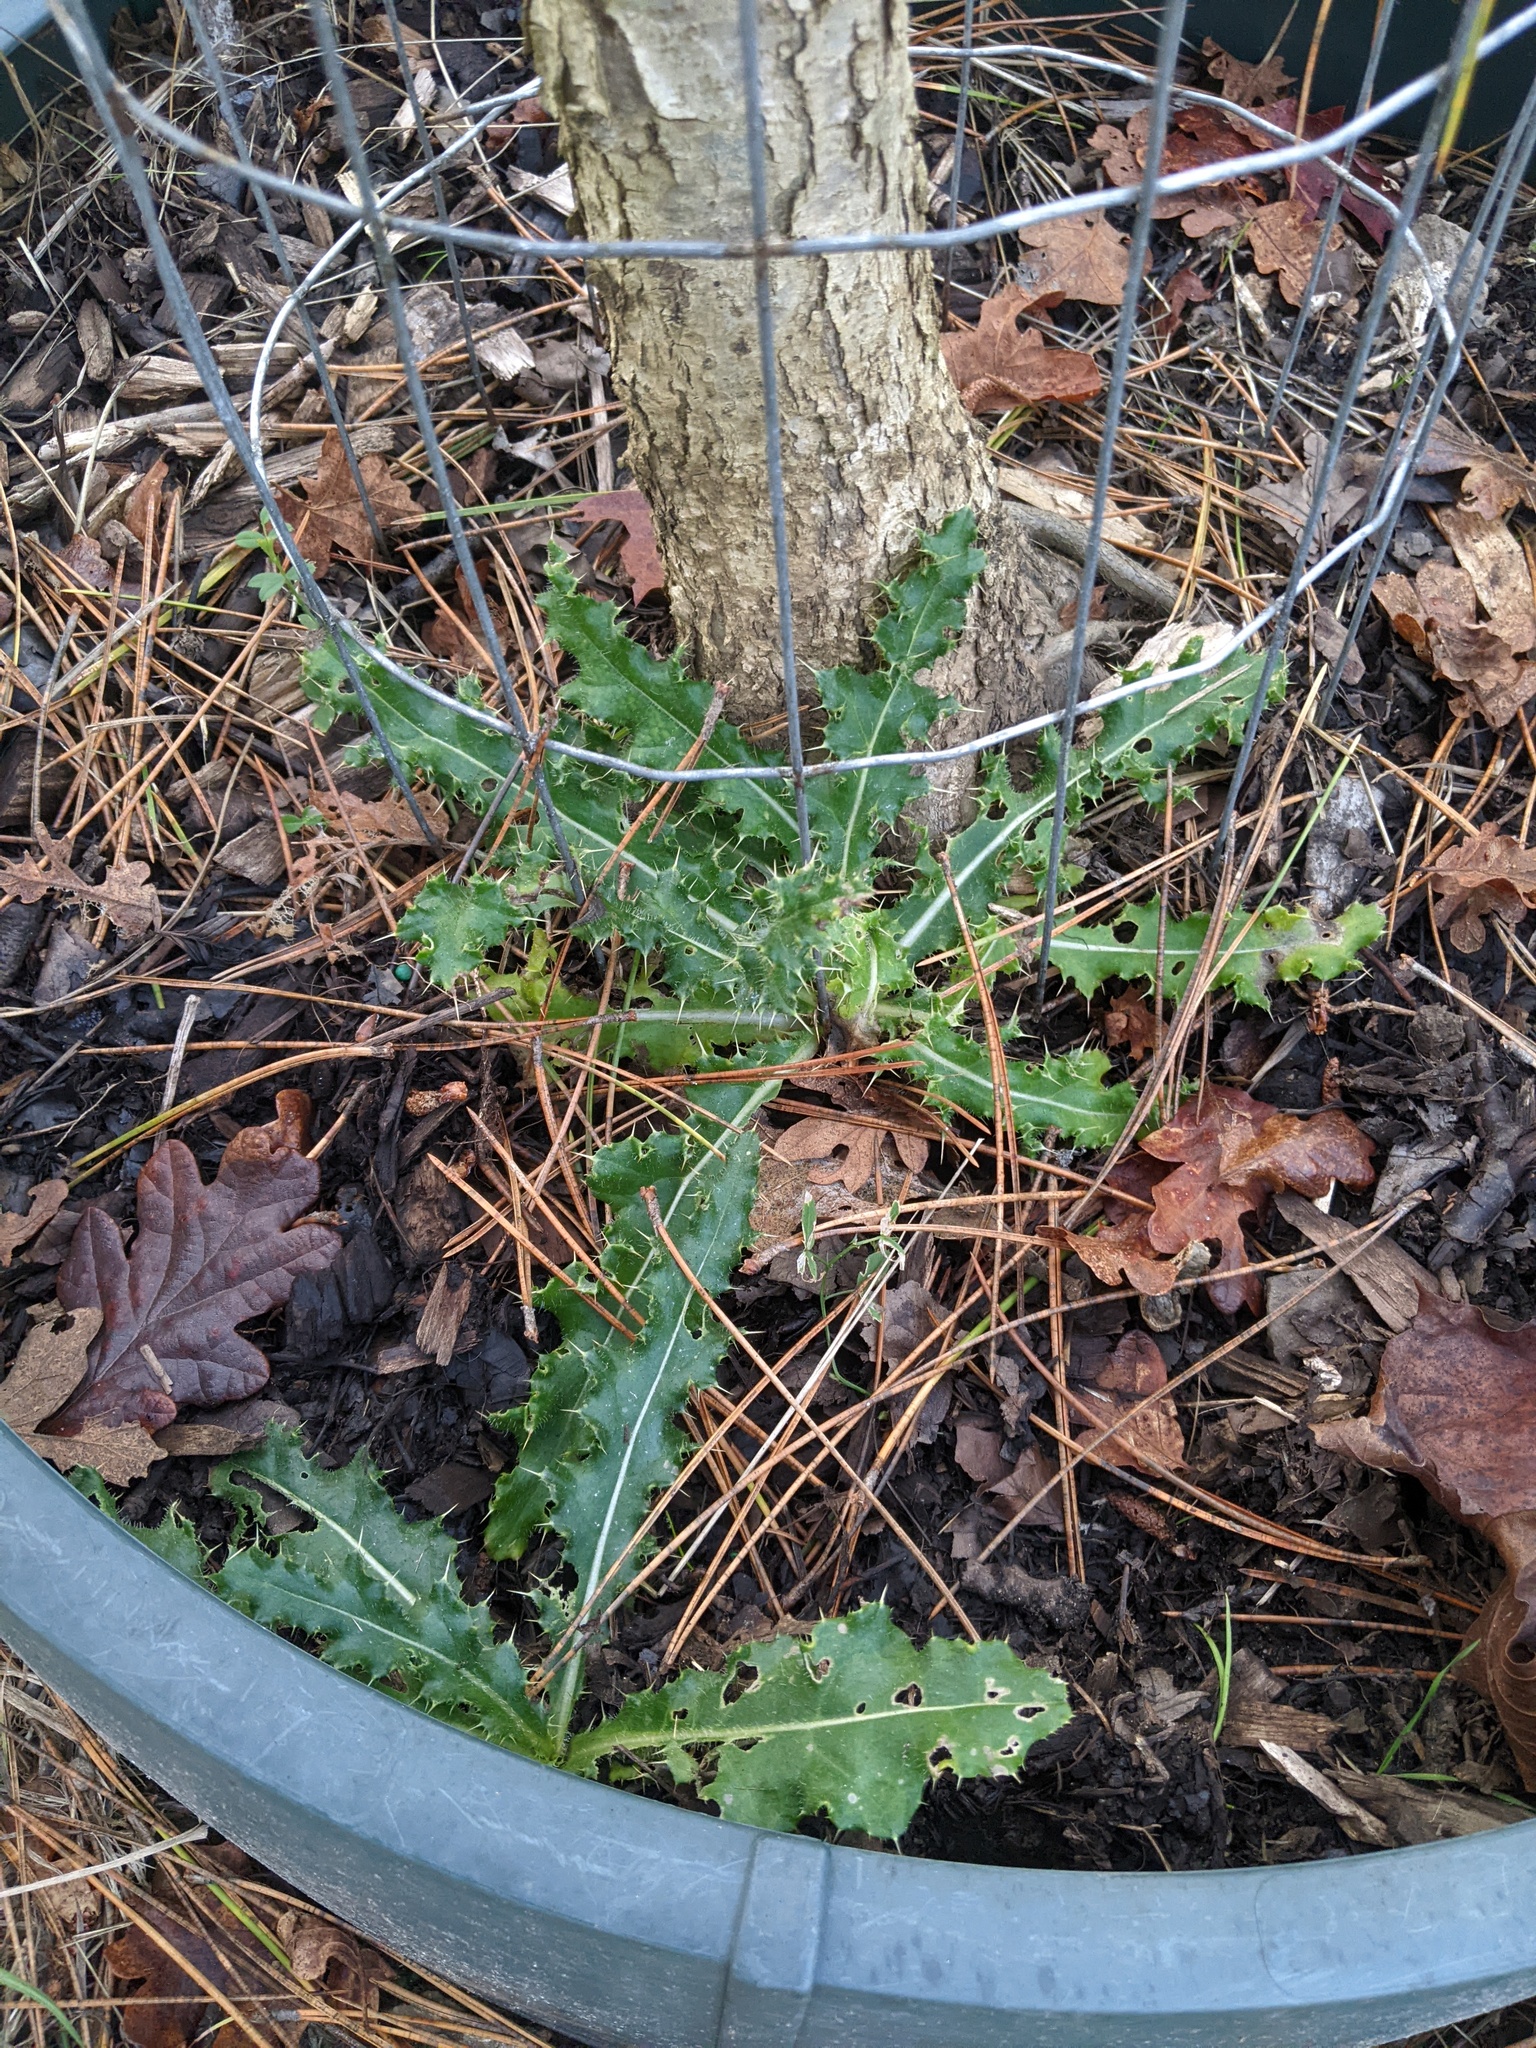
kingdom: Plantae
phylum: Tracheophyta
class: Magnoliopsida
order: Asterales
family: Asteraceae
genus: Cirsium
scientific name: Cirsium arvense
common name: Creeping thistle
